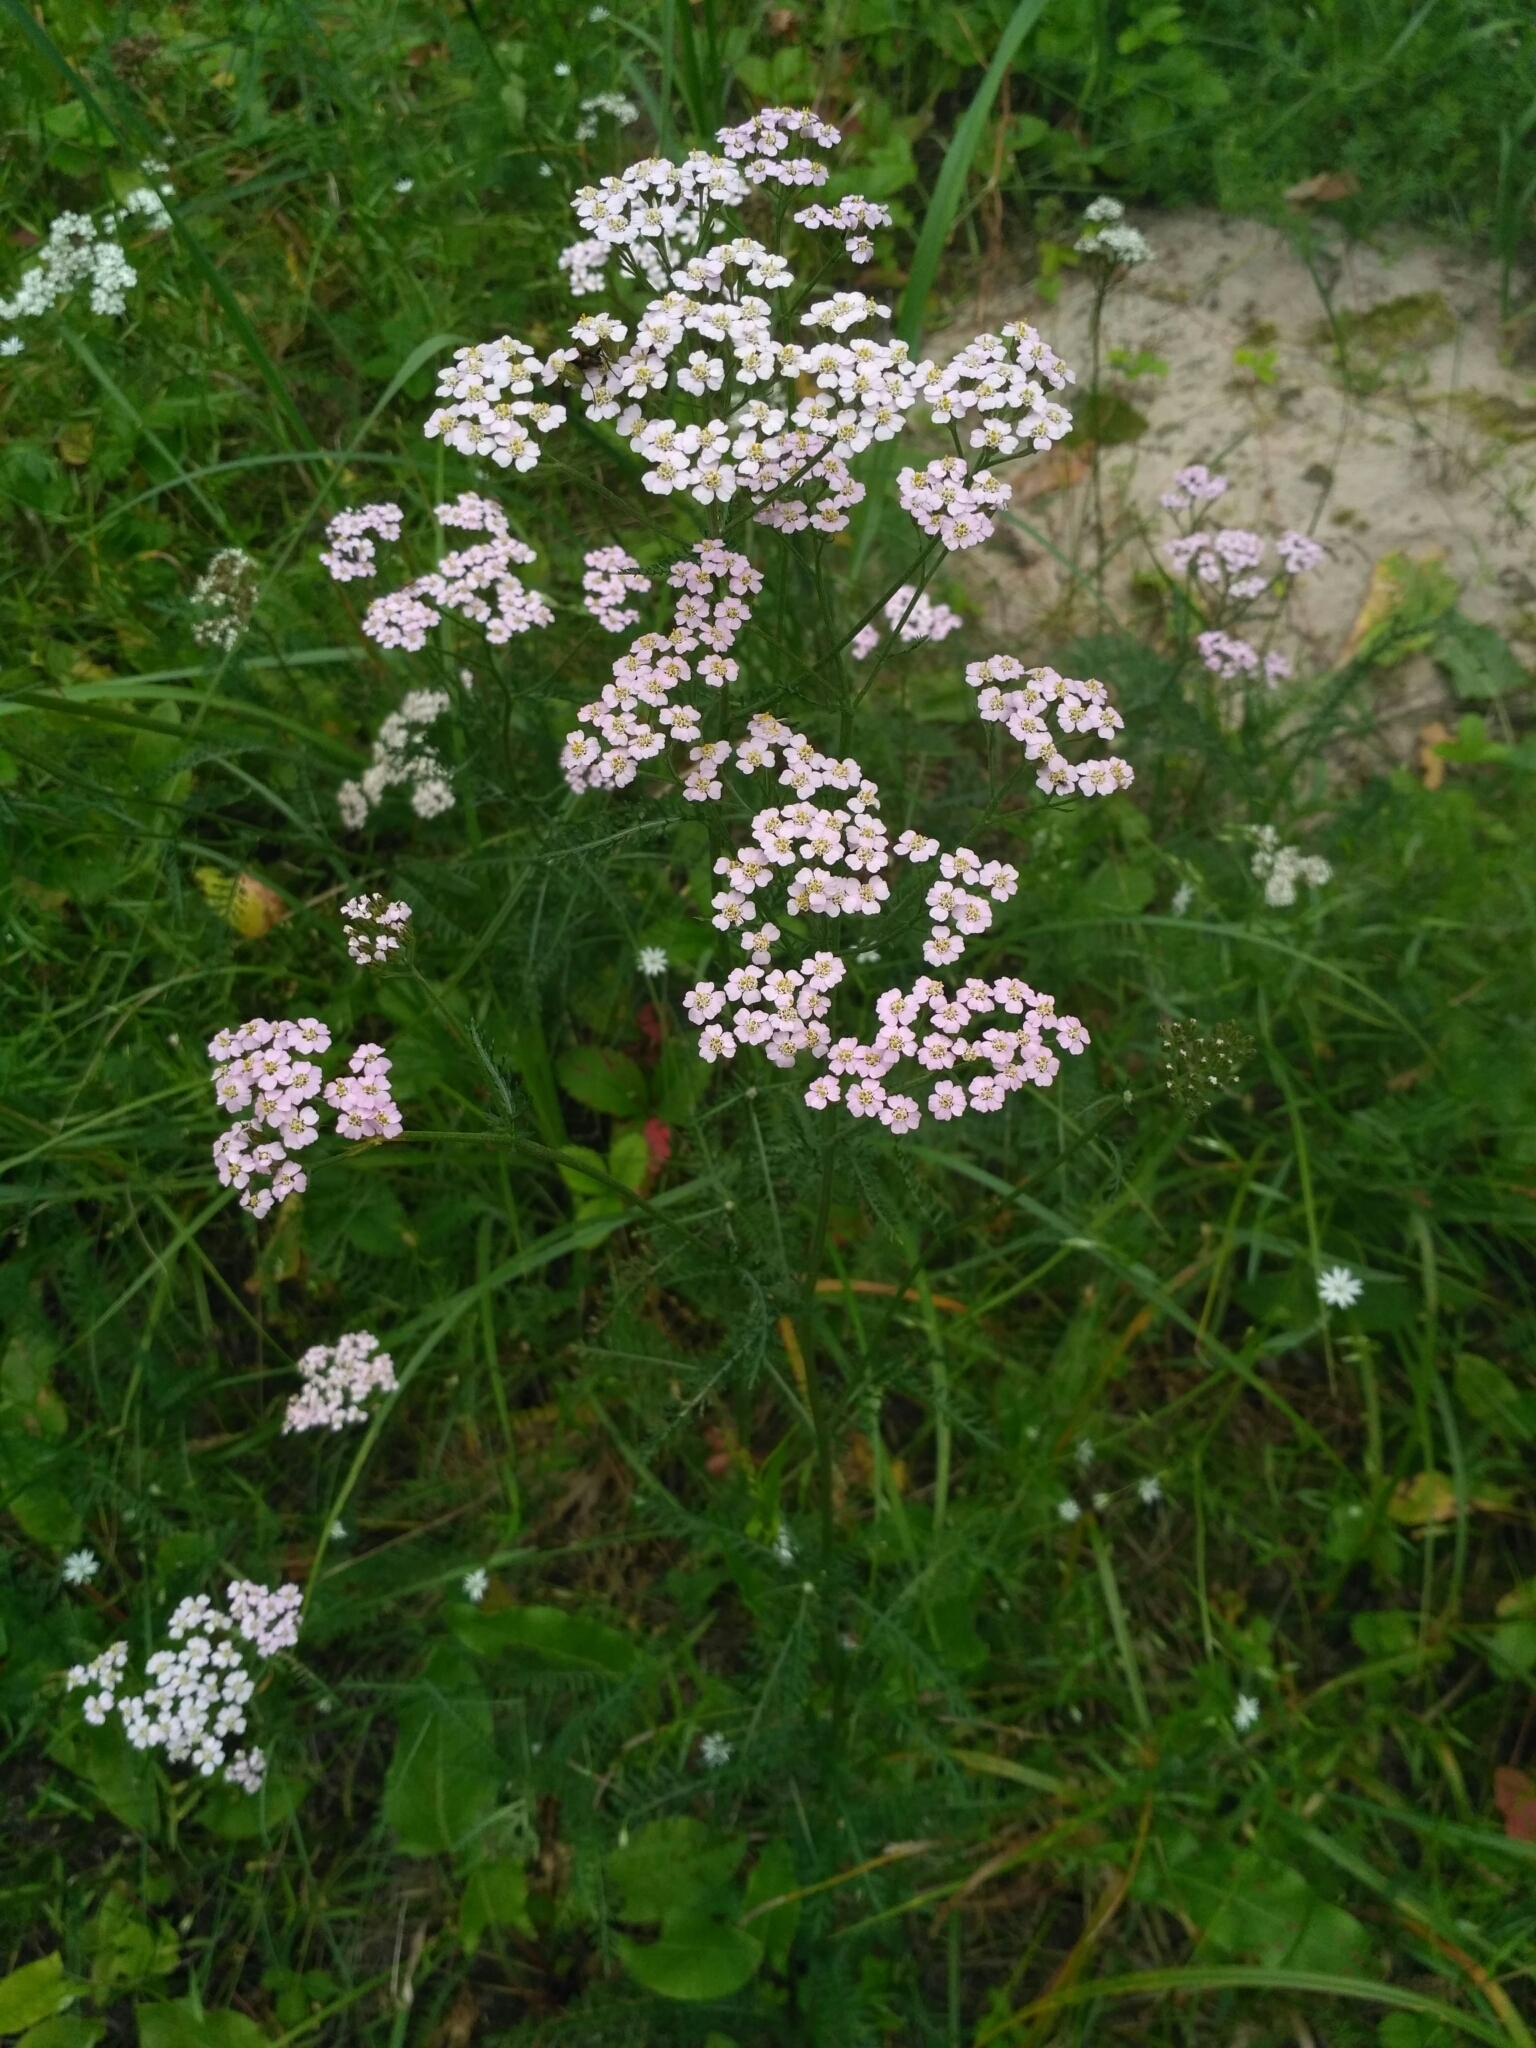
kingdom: Plantae
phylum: Tracheophyta
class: Magnoliopsida
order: Asterales
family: Asteraceae
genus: Achillea
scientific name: Achillea millefolium
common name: Yarrow
